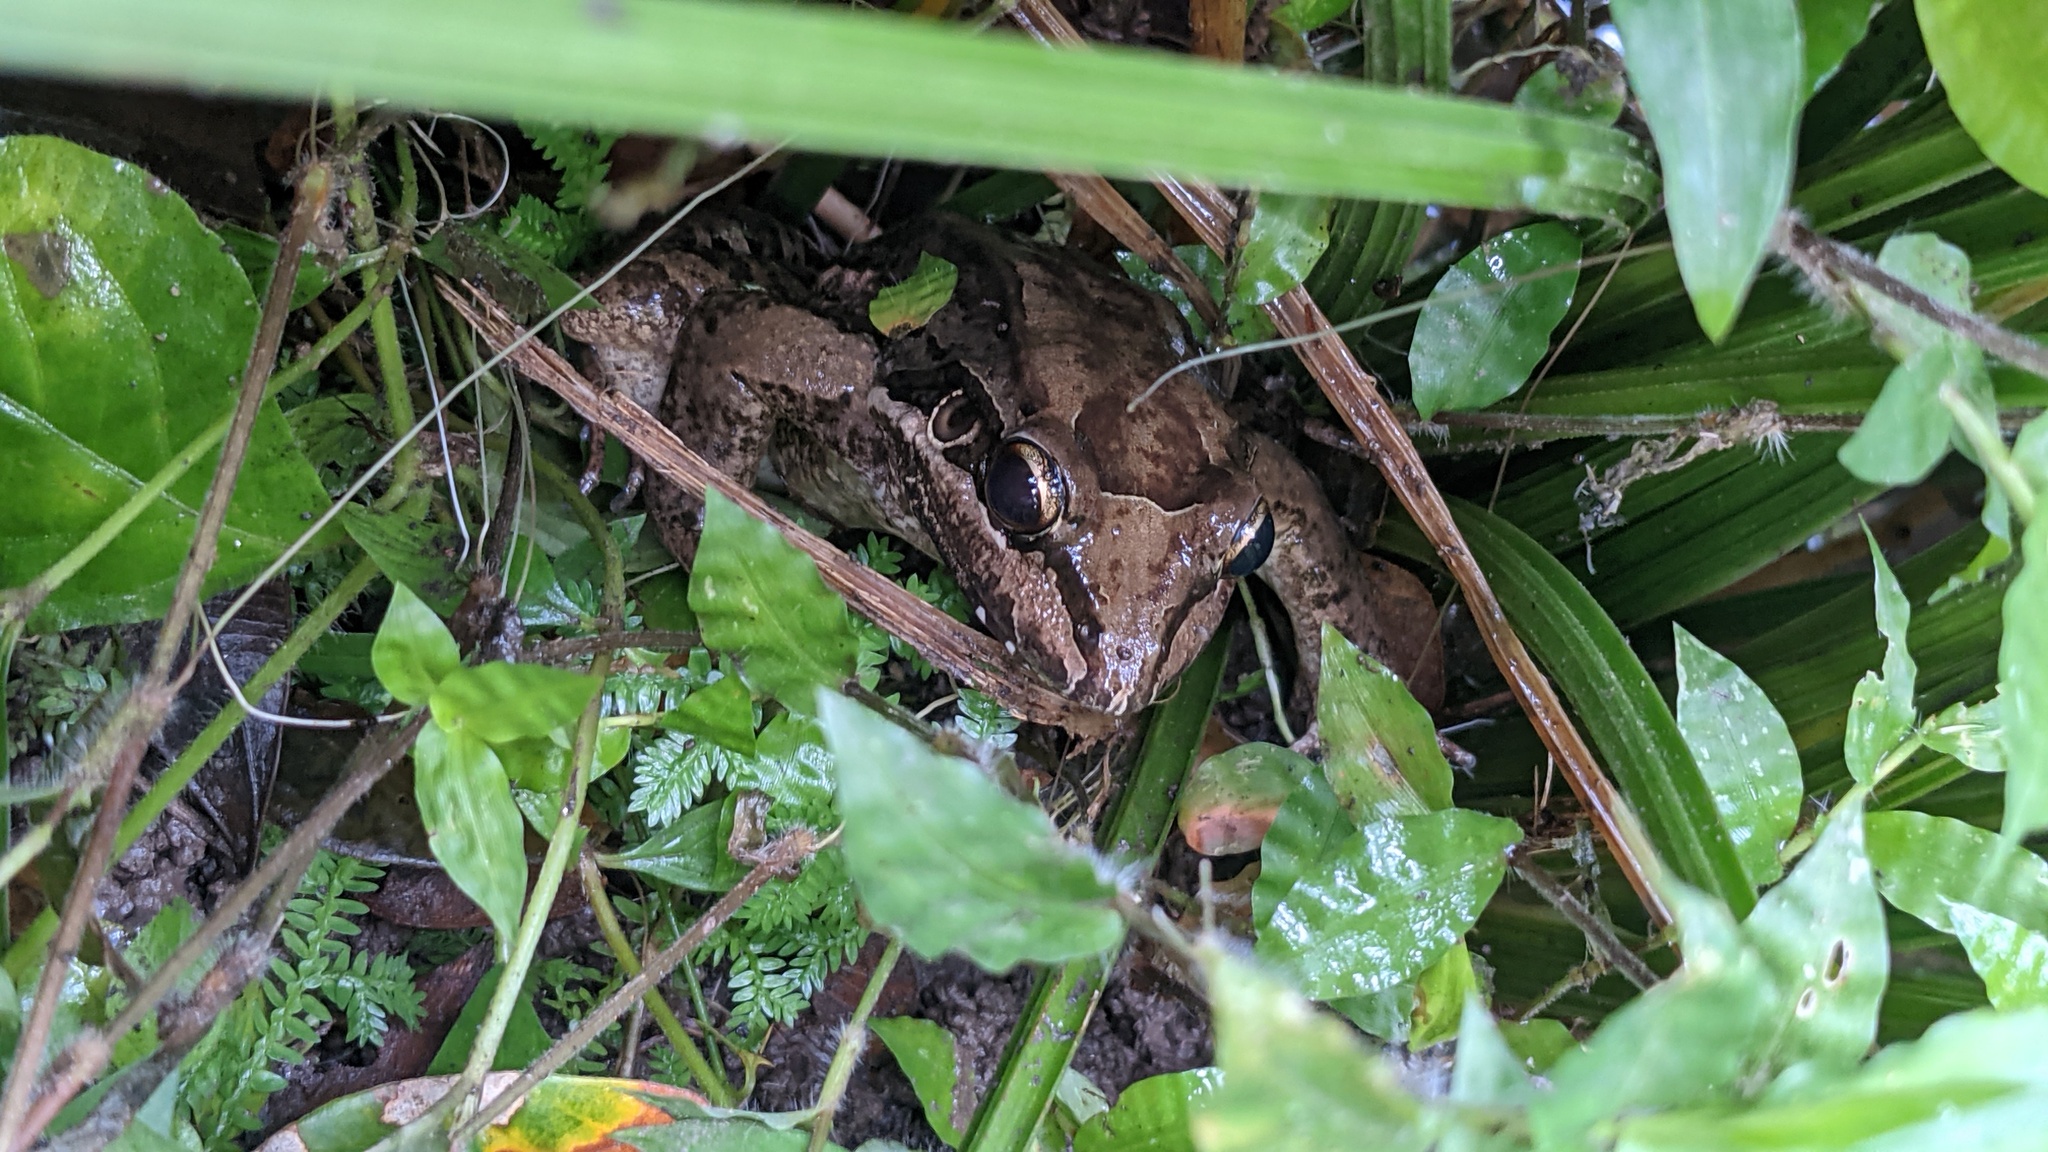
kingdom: Animalia
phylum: Chordata
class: Amphibia
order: Anura
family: Leptodactylidae
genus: Leptodactylus
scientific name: Leptodactylus insularum
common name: San miguel island frog
